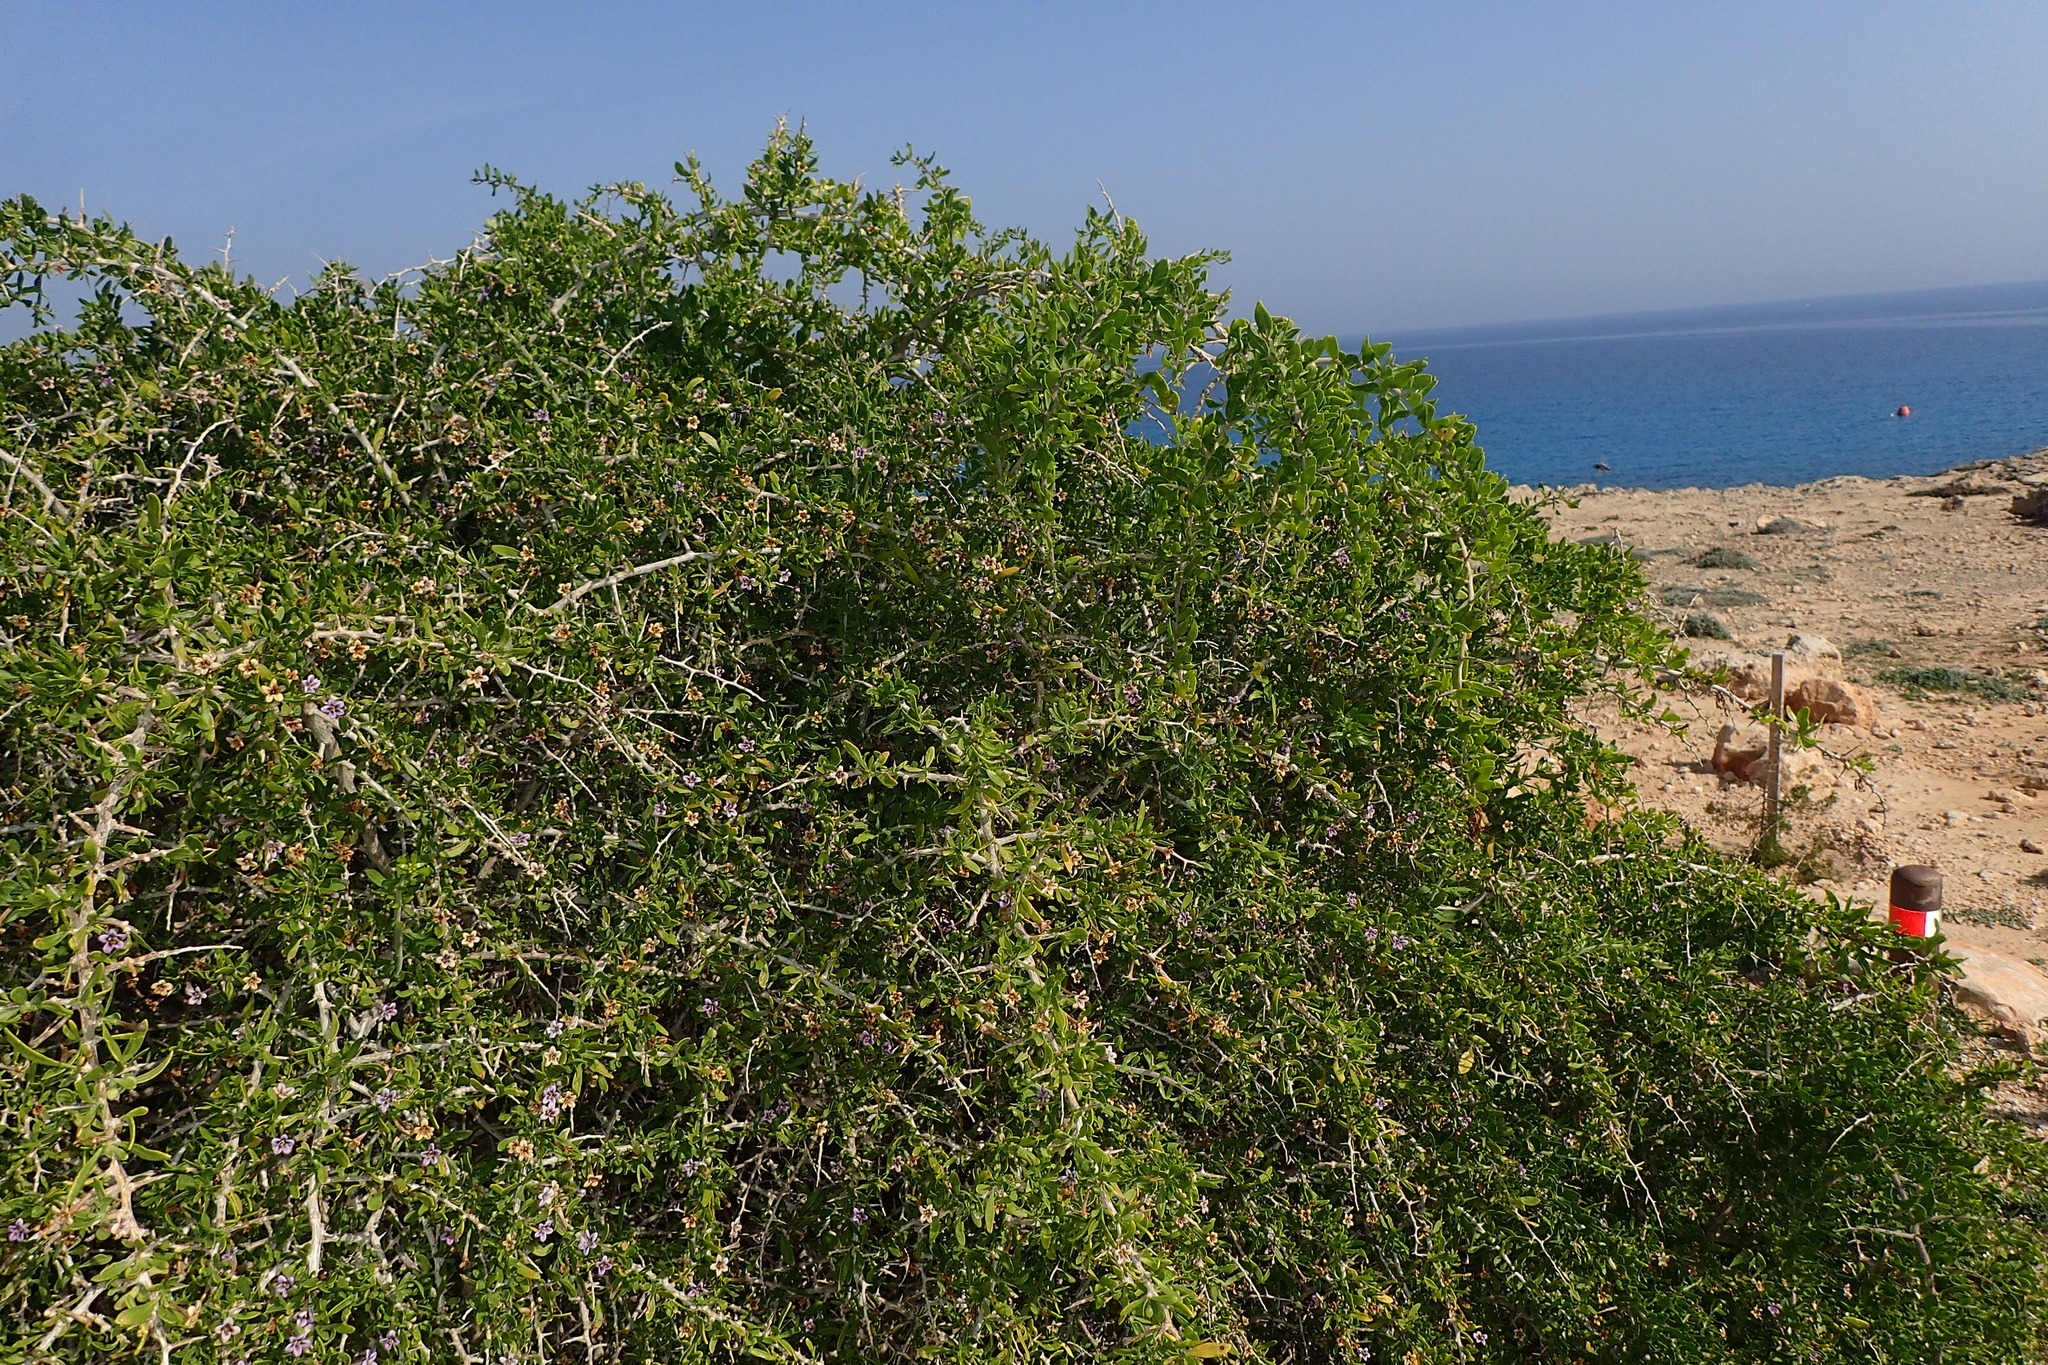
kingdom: Plantae
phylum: Tracheophyta
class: Magnoliopsida
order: Solanales
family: Solanaceae
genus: Lycium
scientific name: Lycium schweinfurthii
